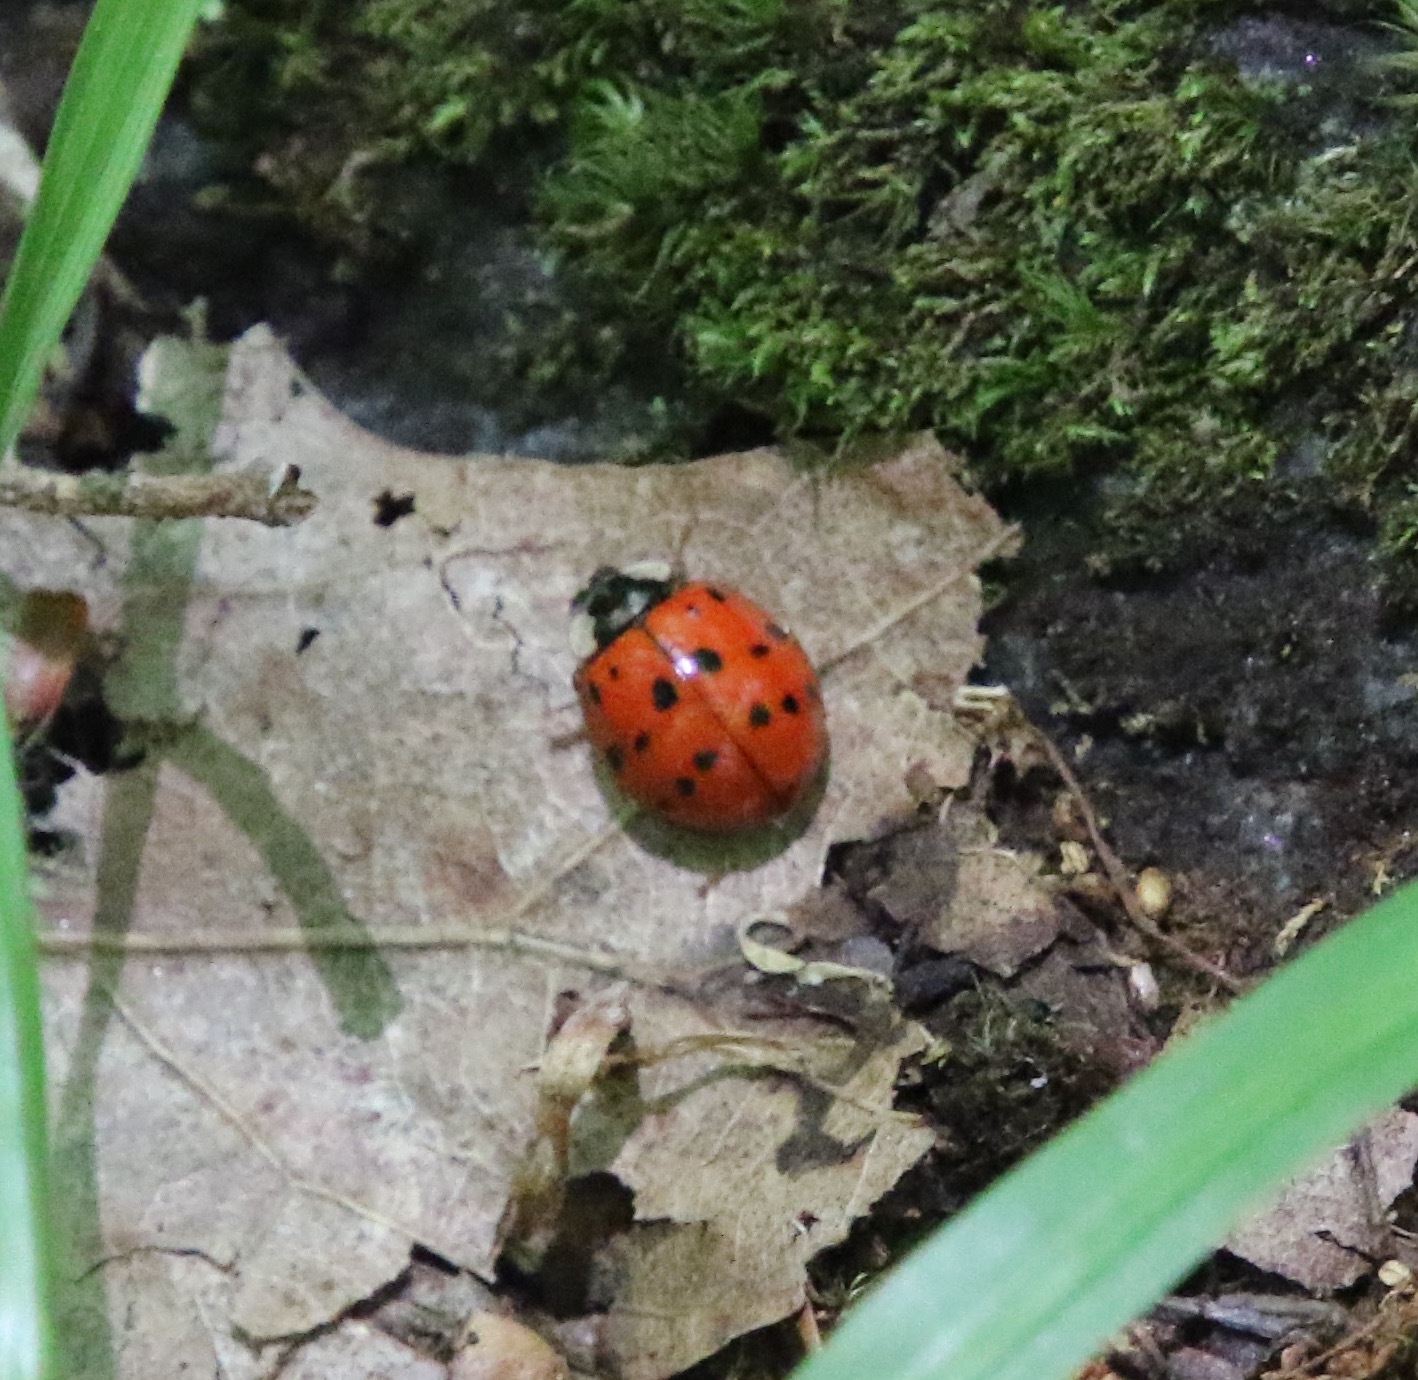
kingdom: Animalia
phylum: Arthropoda
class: Insecta
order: Coleoptera
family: Coccinellidae
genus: Harmonia
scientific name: Harmonia axyridis
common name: Harlequin ladybird
